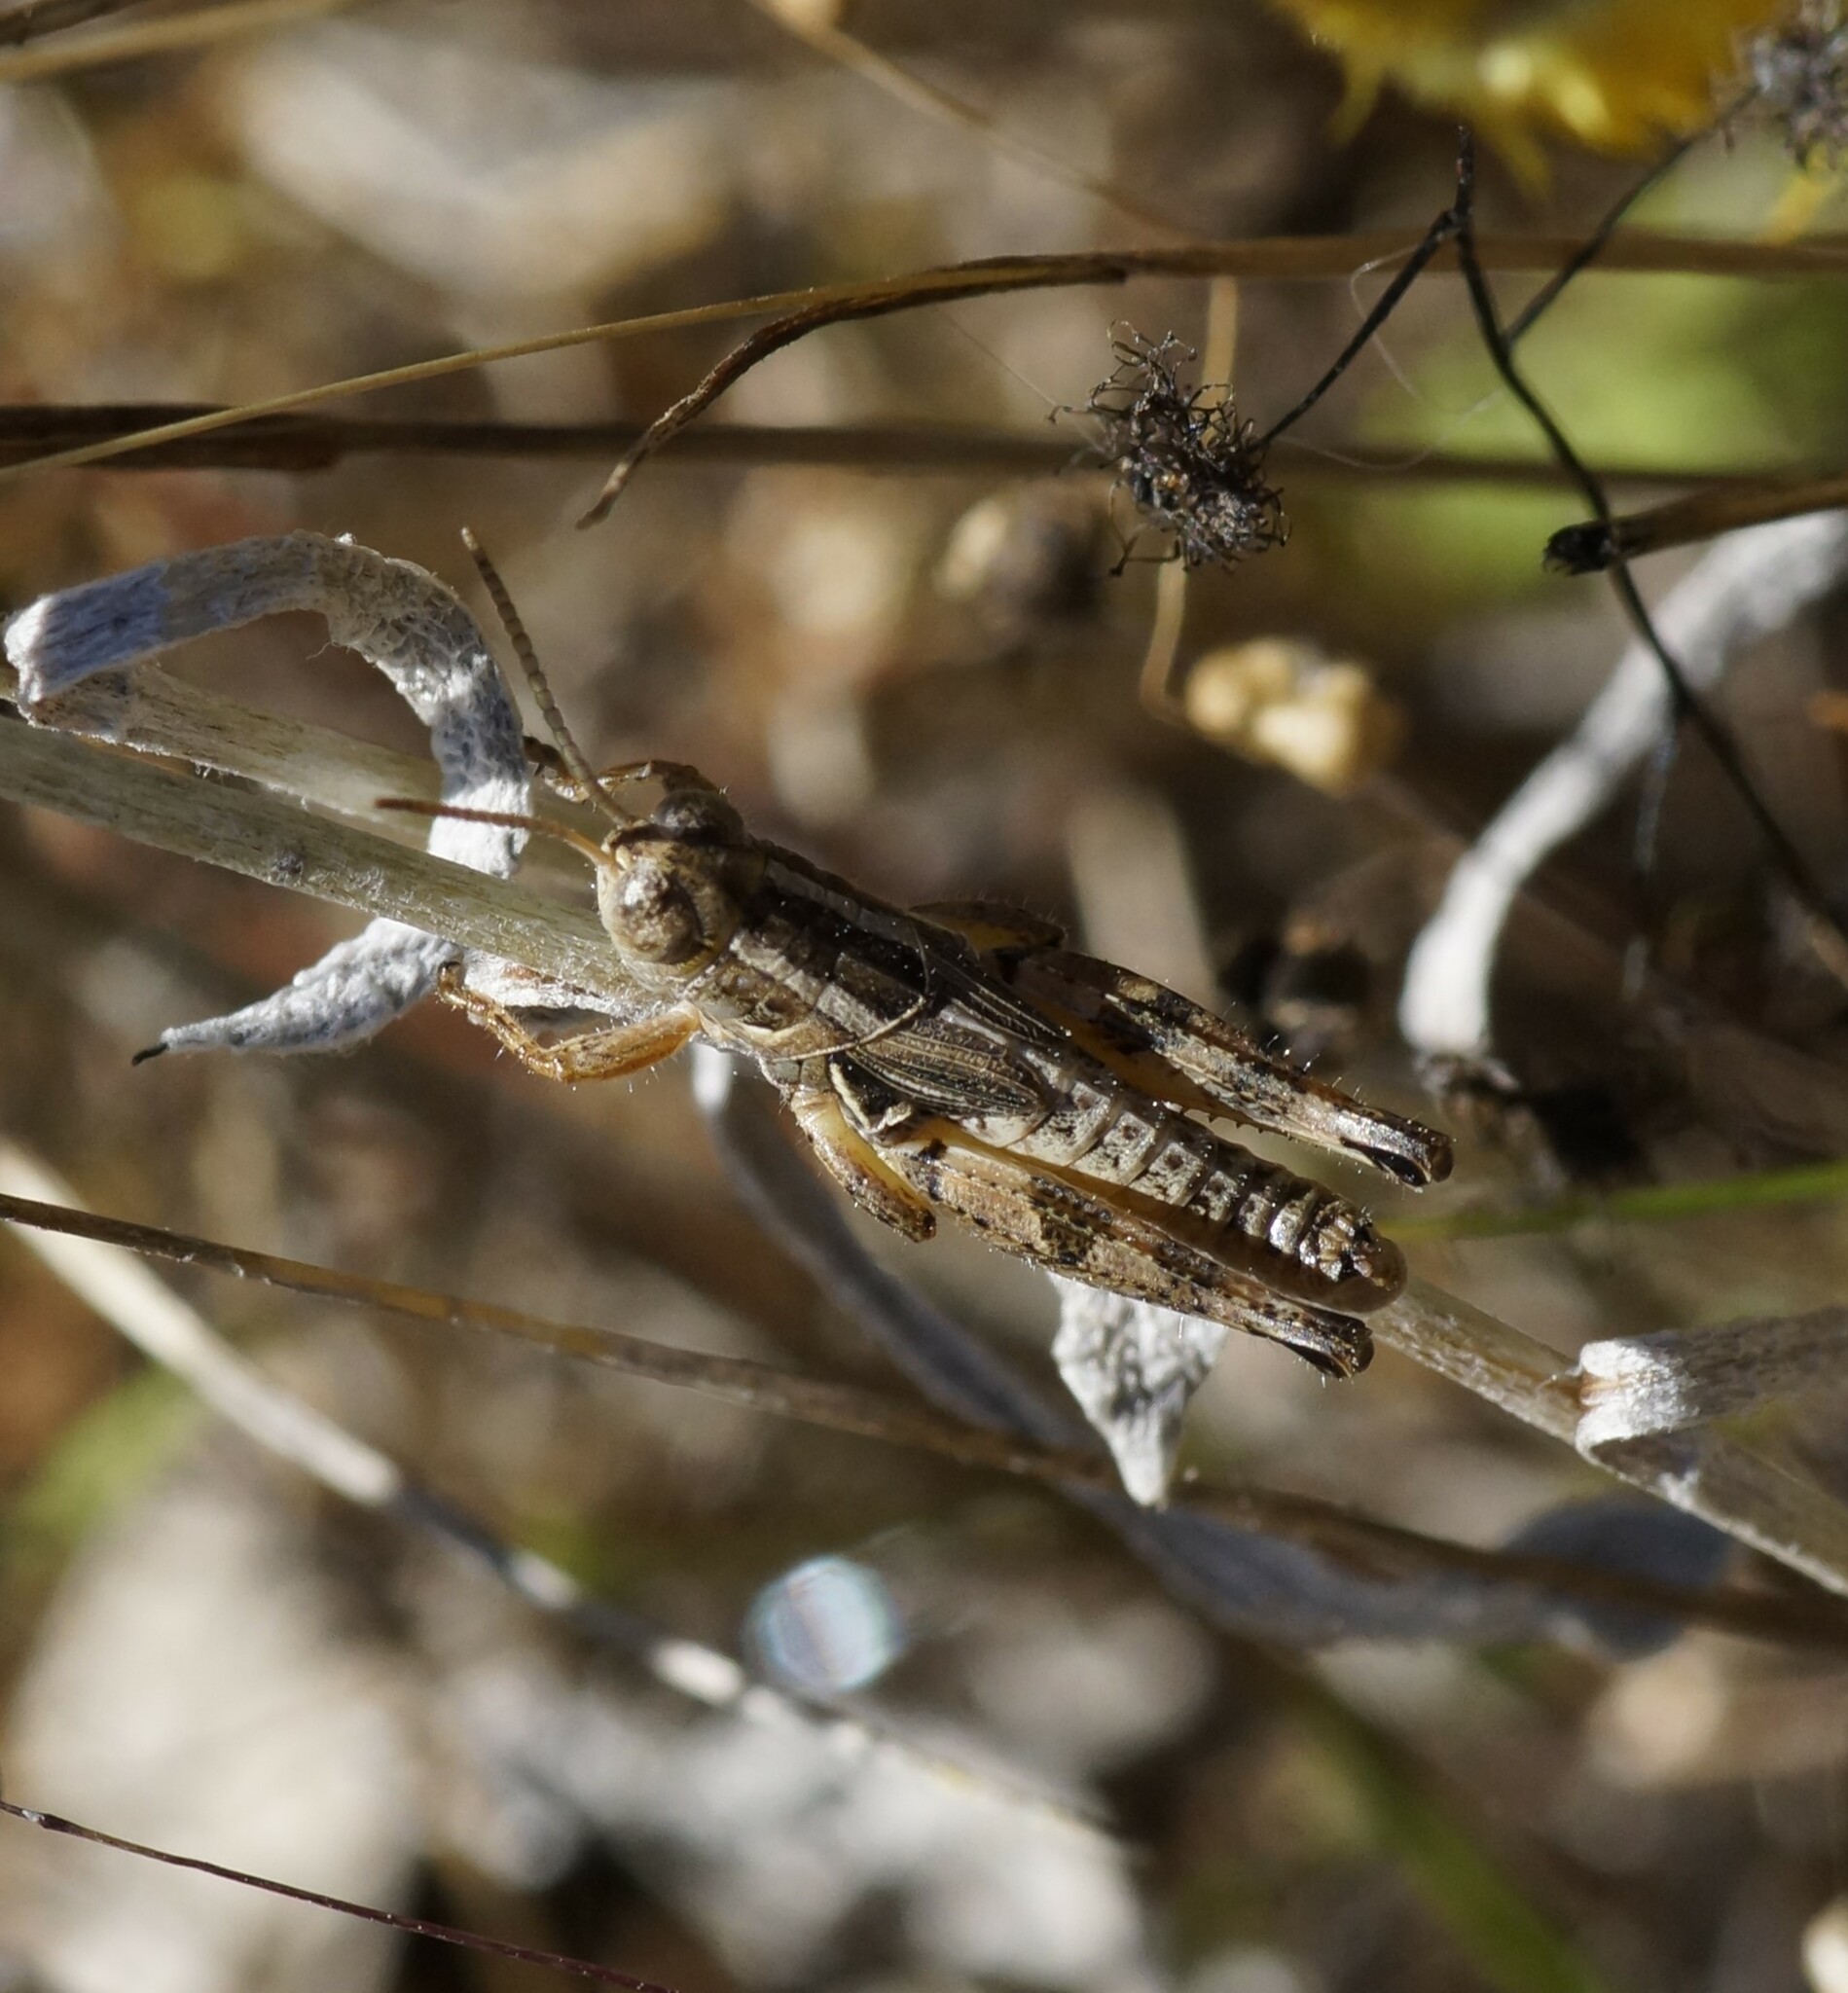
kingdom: Animalia
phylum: Arthropoda
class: Insecta
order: Orthoptera
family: Acrididae
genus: Brachyexarna
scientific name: Brachyexarna lobipennis
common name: Stripe-winged meadow grasshopper
